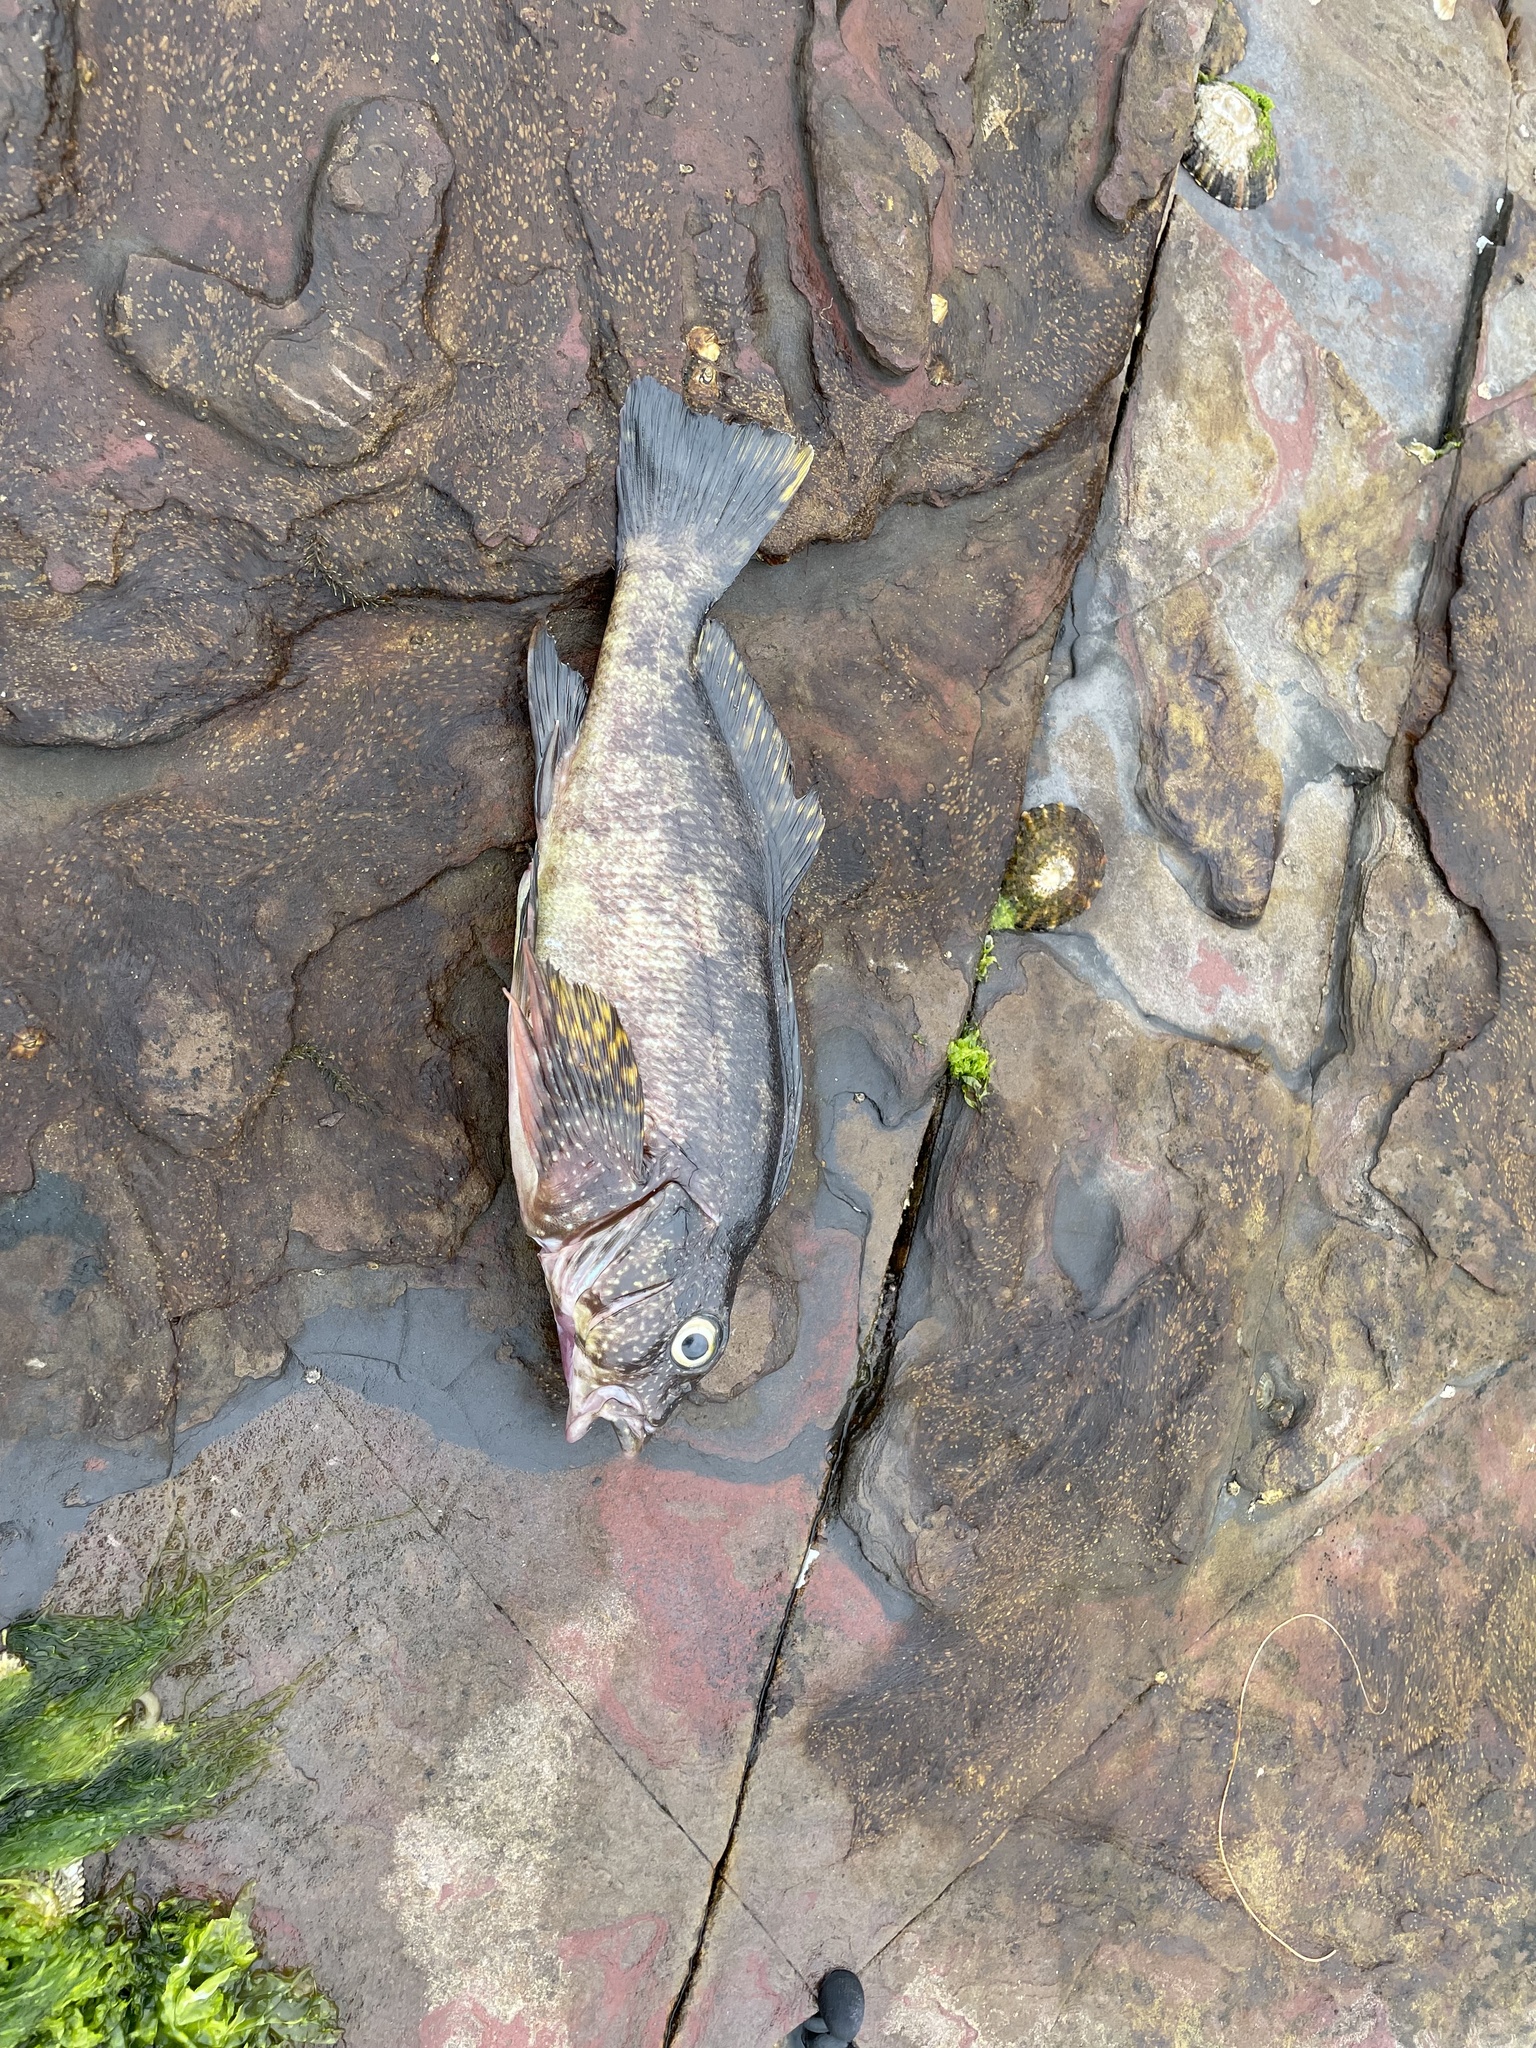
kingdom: Animalia
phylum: Chordata
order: Perciformes
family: Chironemidae
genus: Chironemus
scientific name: Chironemus marmoratus
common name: Kelpfish
